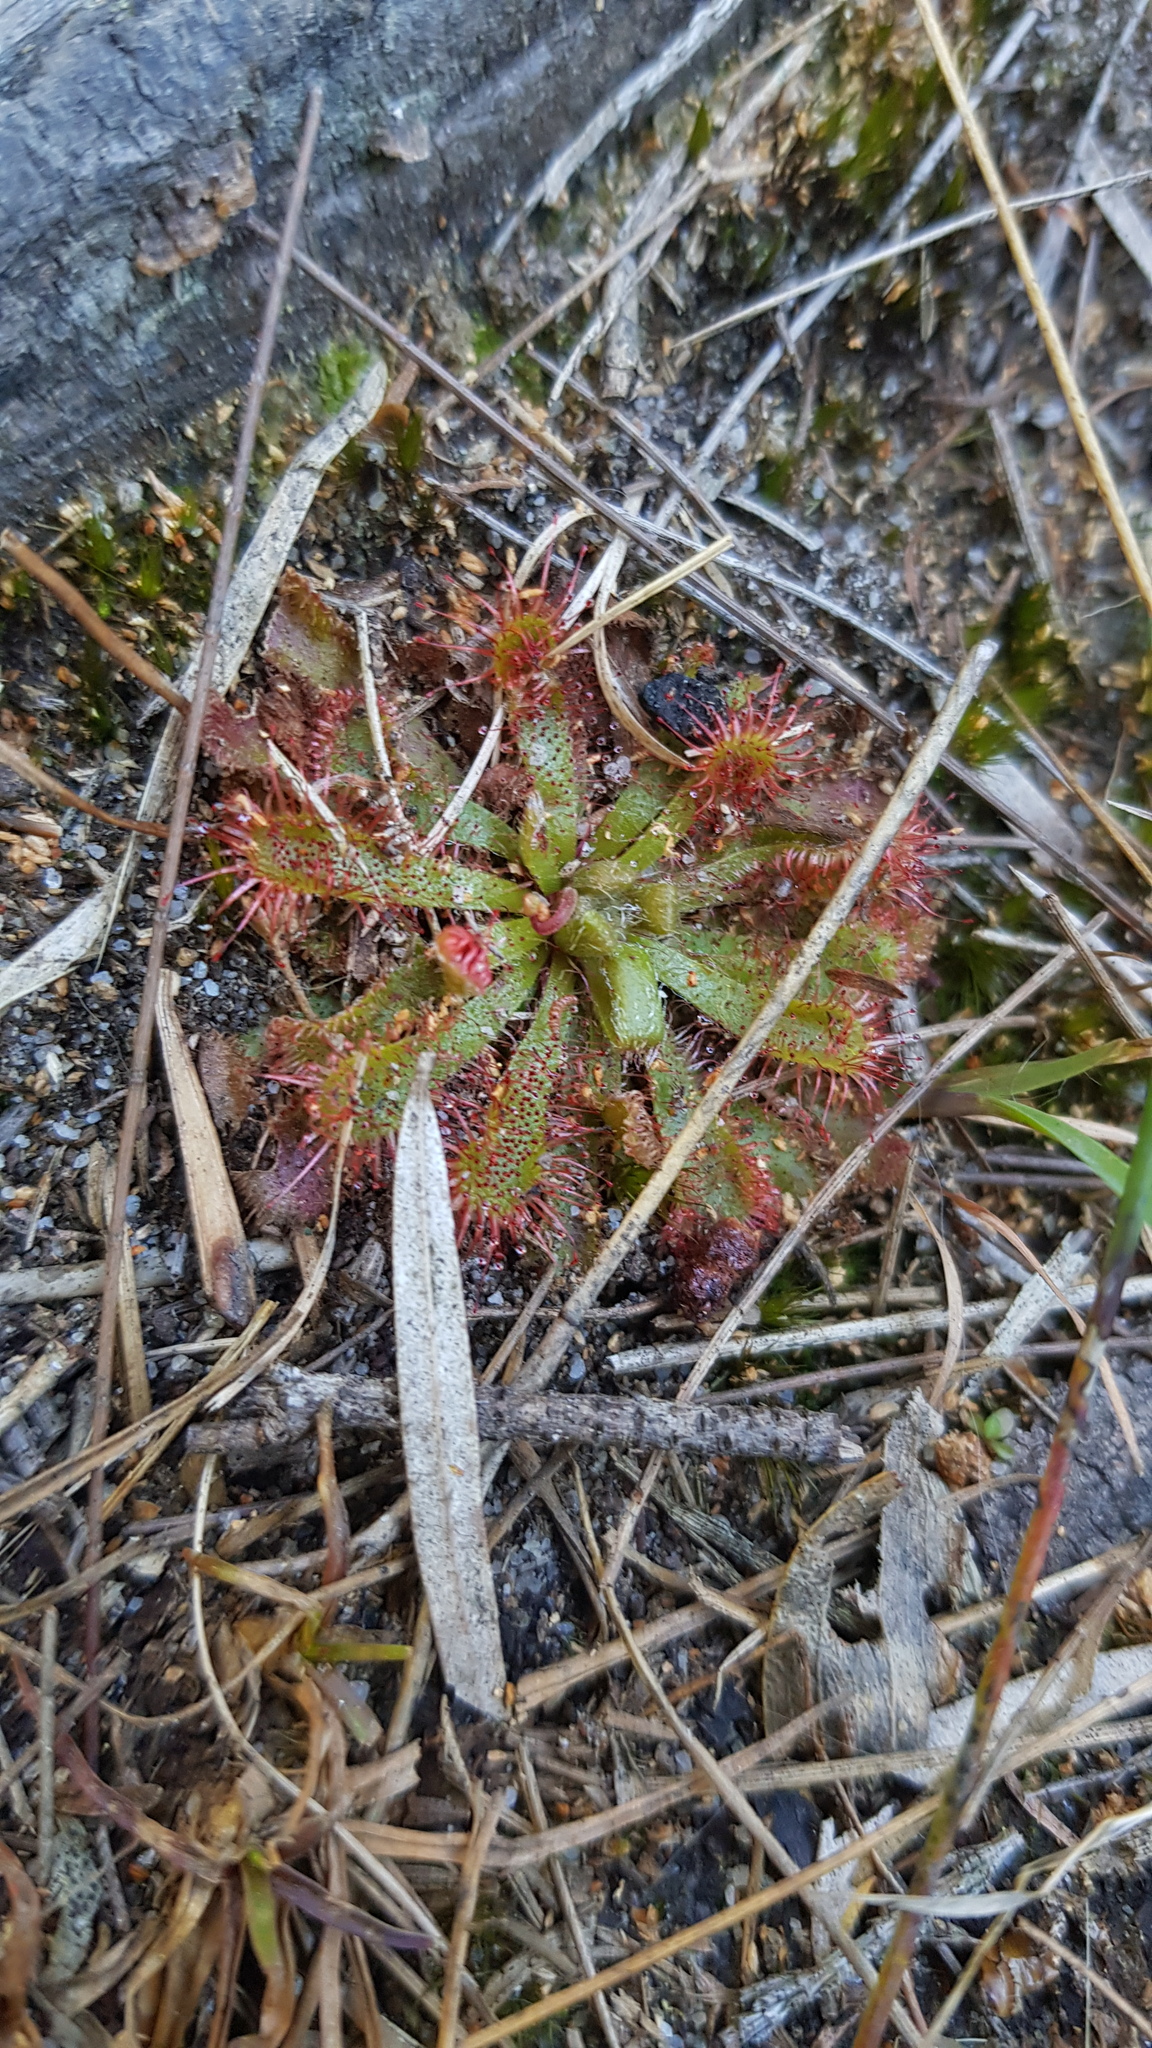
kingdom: Plantae
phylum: Tracheophyta
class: Magnoliopsida
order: Caryophyllales
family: Droseraceae
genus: Drosera
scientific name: Drosera spatulata
